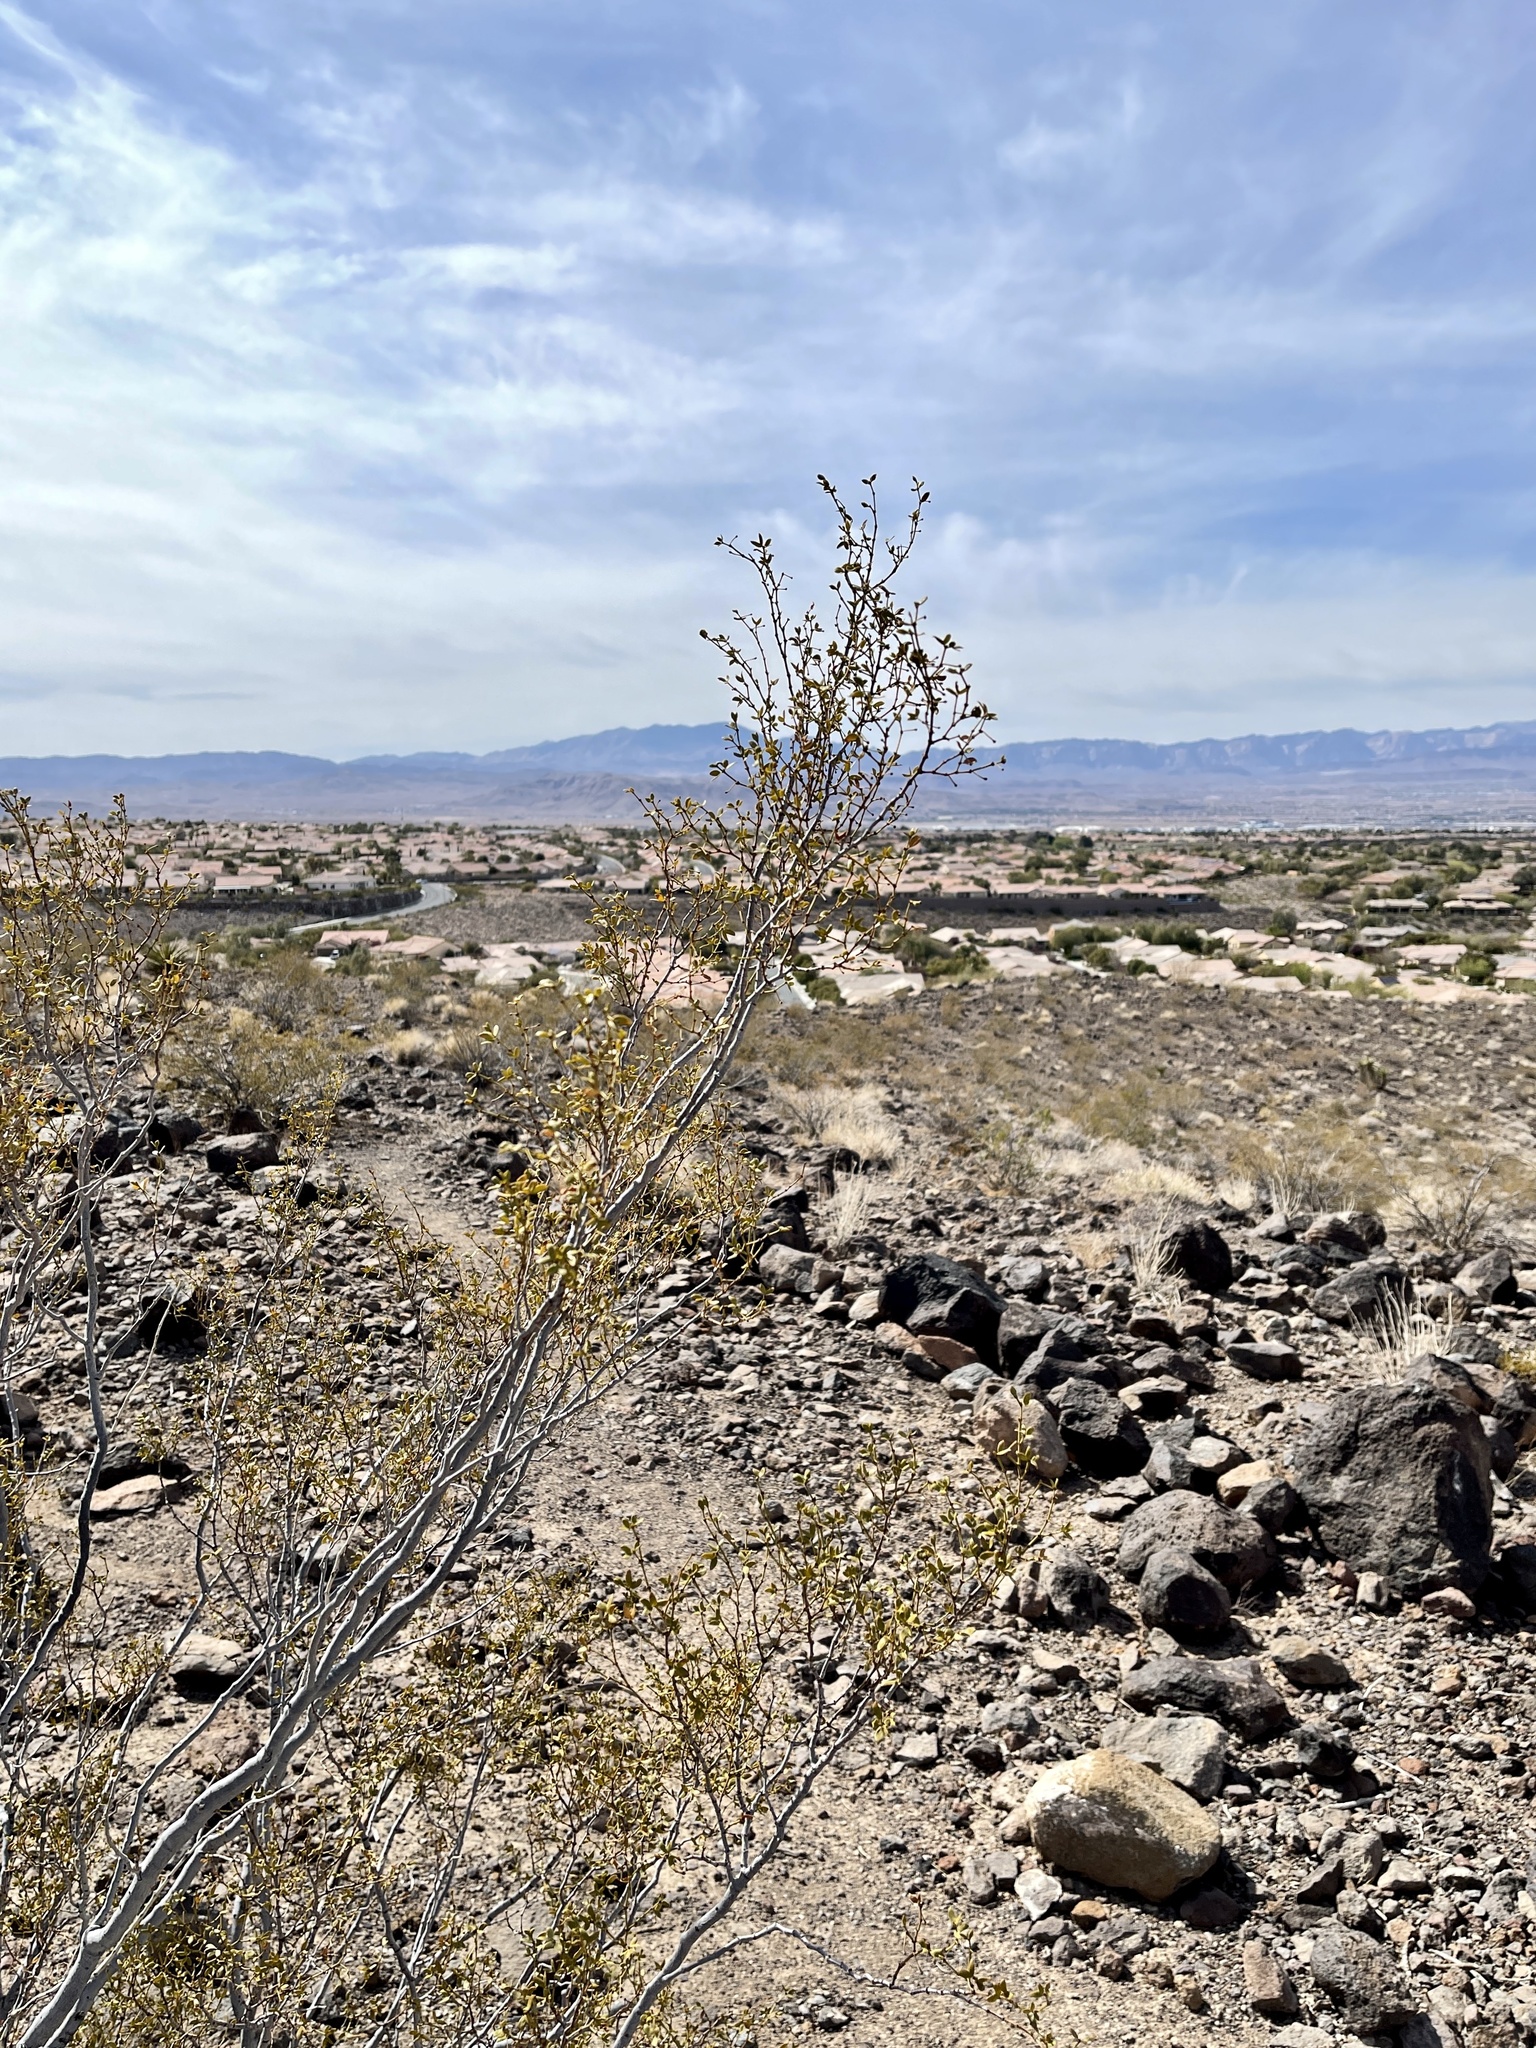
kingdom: Plantae
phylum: Tracheophyta
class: Magnoliopsida
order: Zygophyllales
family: Zygophyllaceae
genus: Larrea
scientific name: Larrea tridentata
